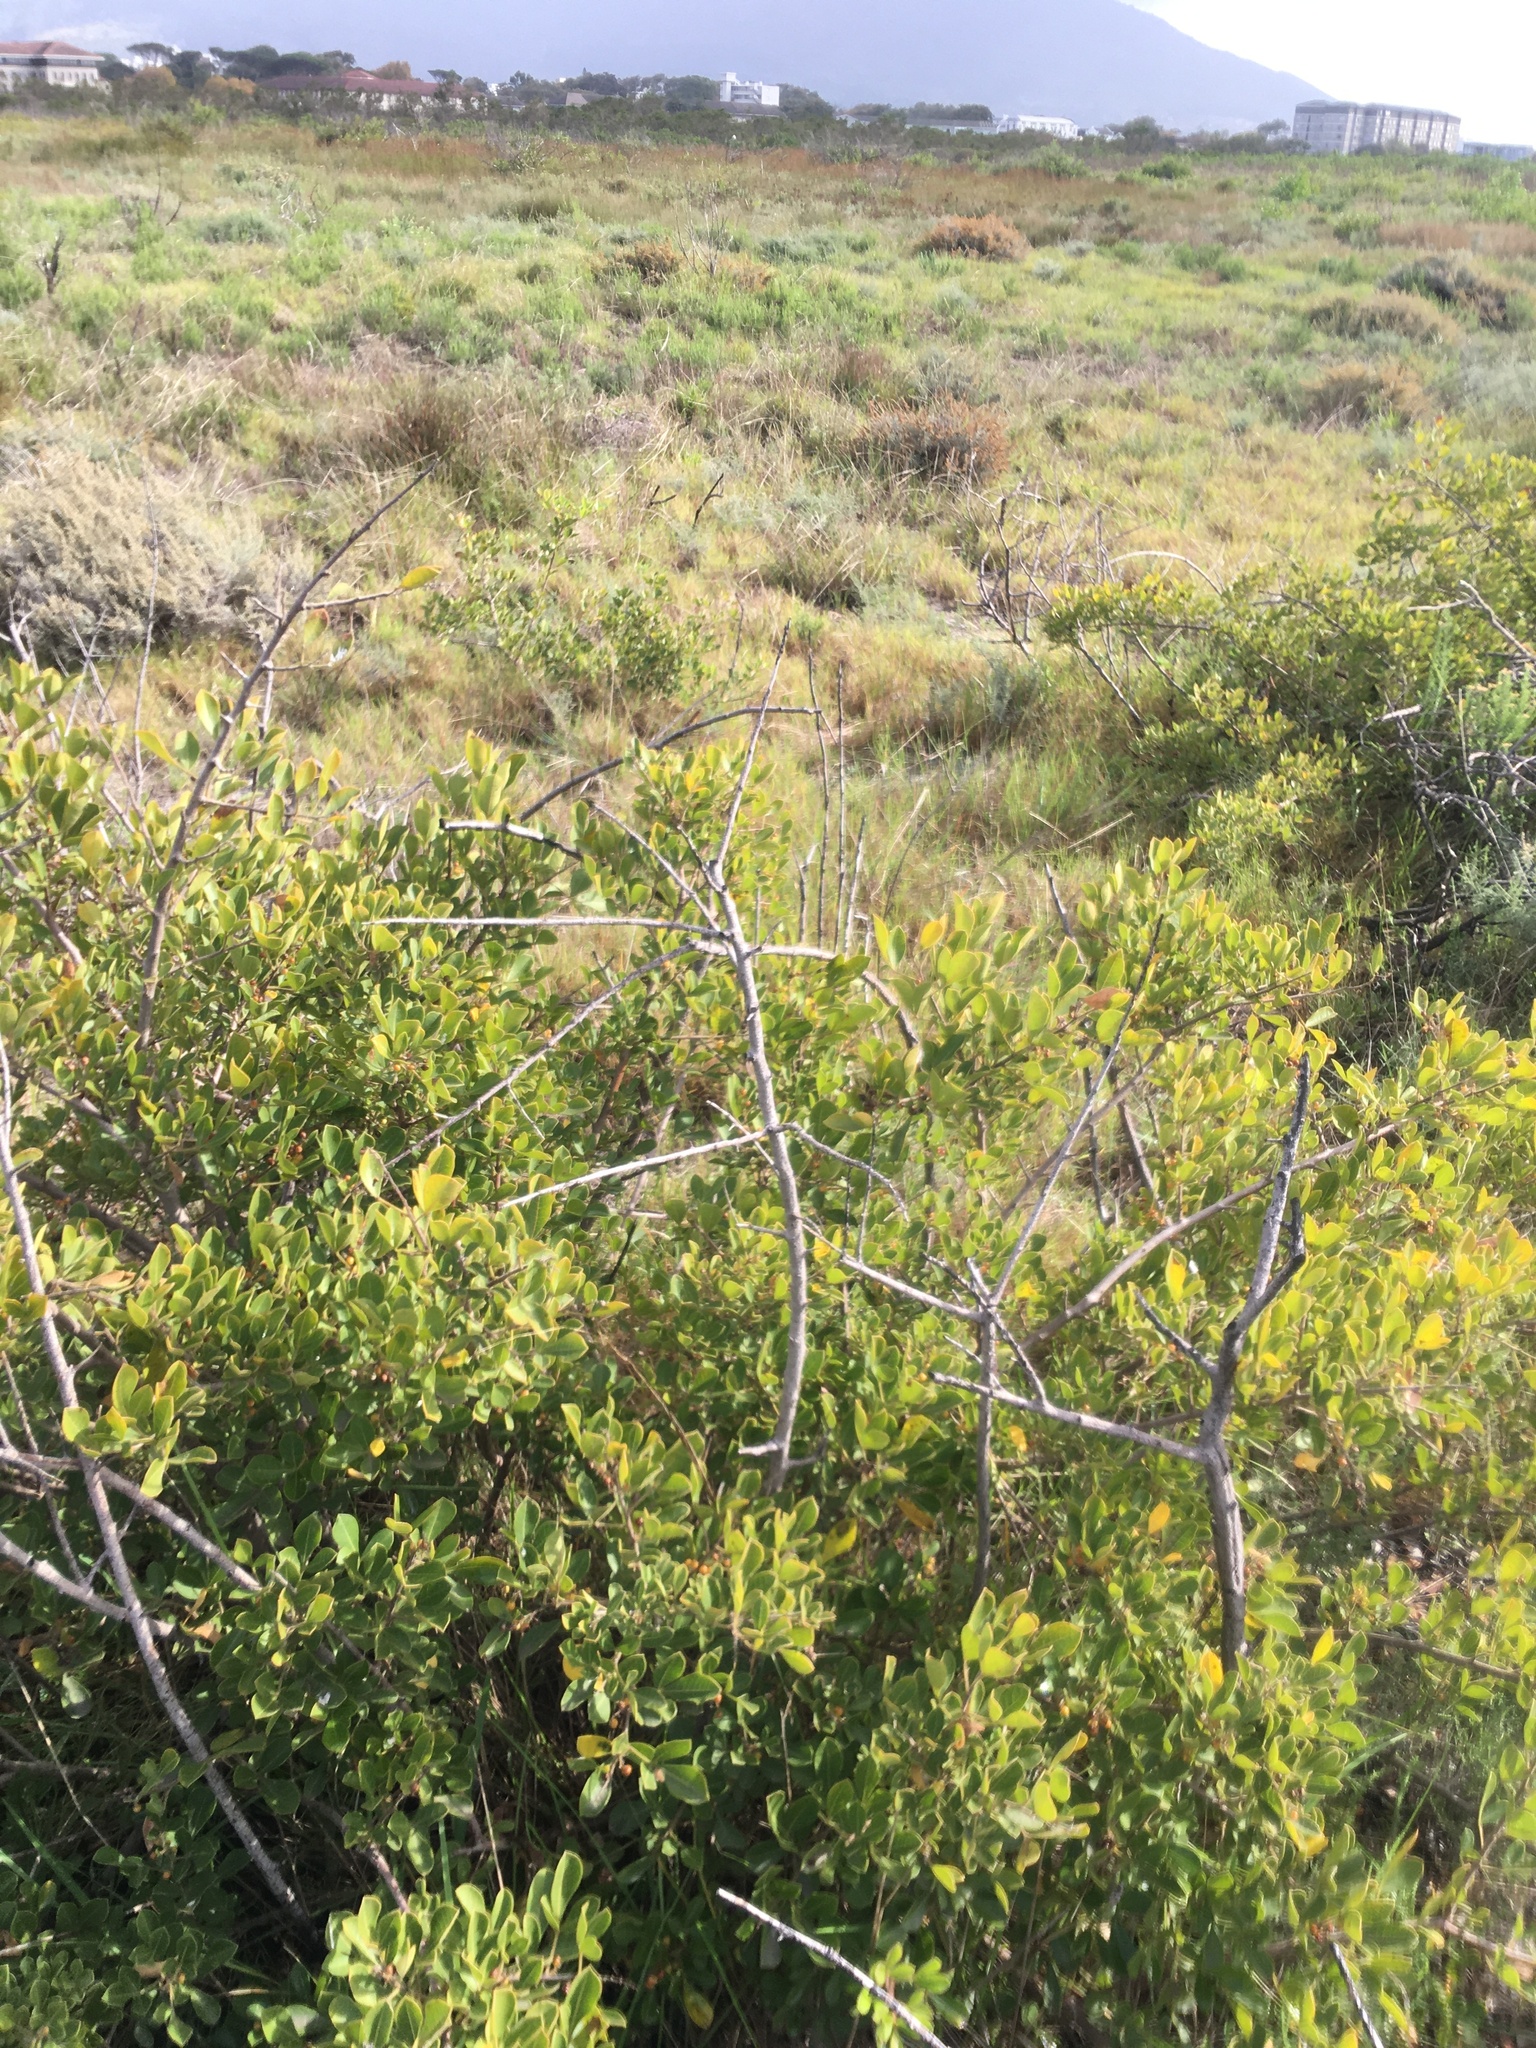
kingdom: Plantae
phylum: Tracheophyta
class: Magnoliopsida
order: Sapindales
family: Anacardiaceae
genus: Searsia
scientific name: Searsia laevigata
